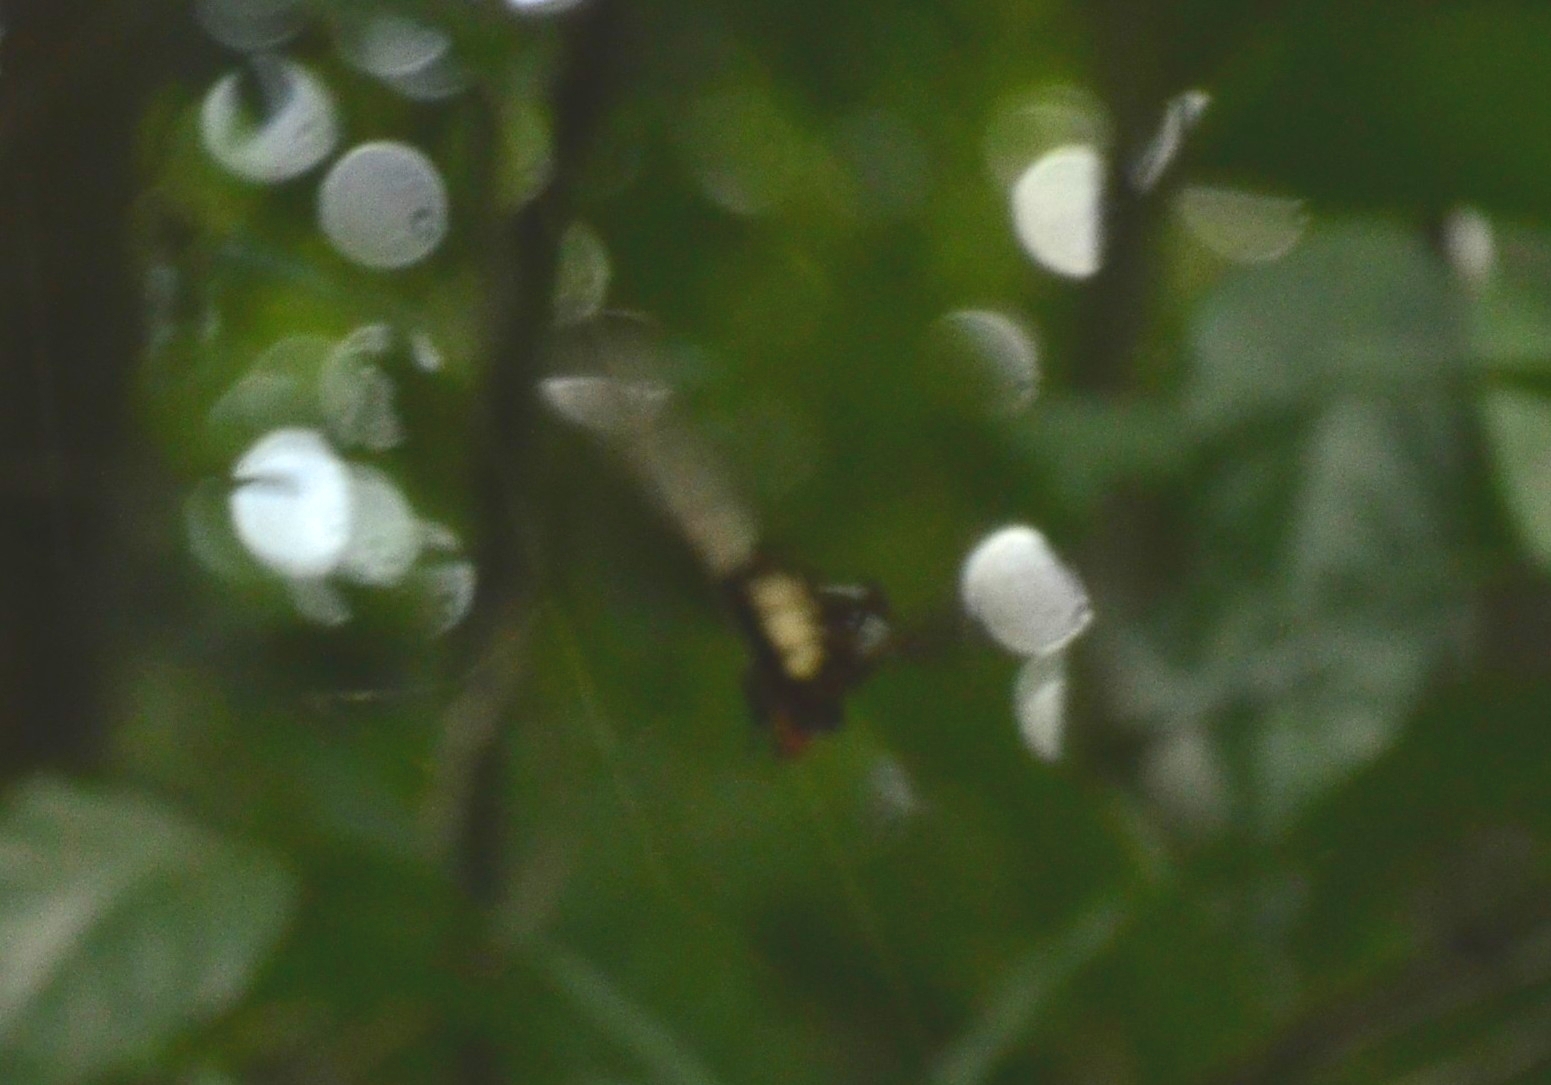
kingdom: Animalia
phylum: Arthropoda
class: Insecta
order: Lepidoptera
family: Papilionidae
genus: Pachliopta
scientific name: Pachliopta pandiyana
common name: Malabar rose
